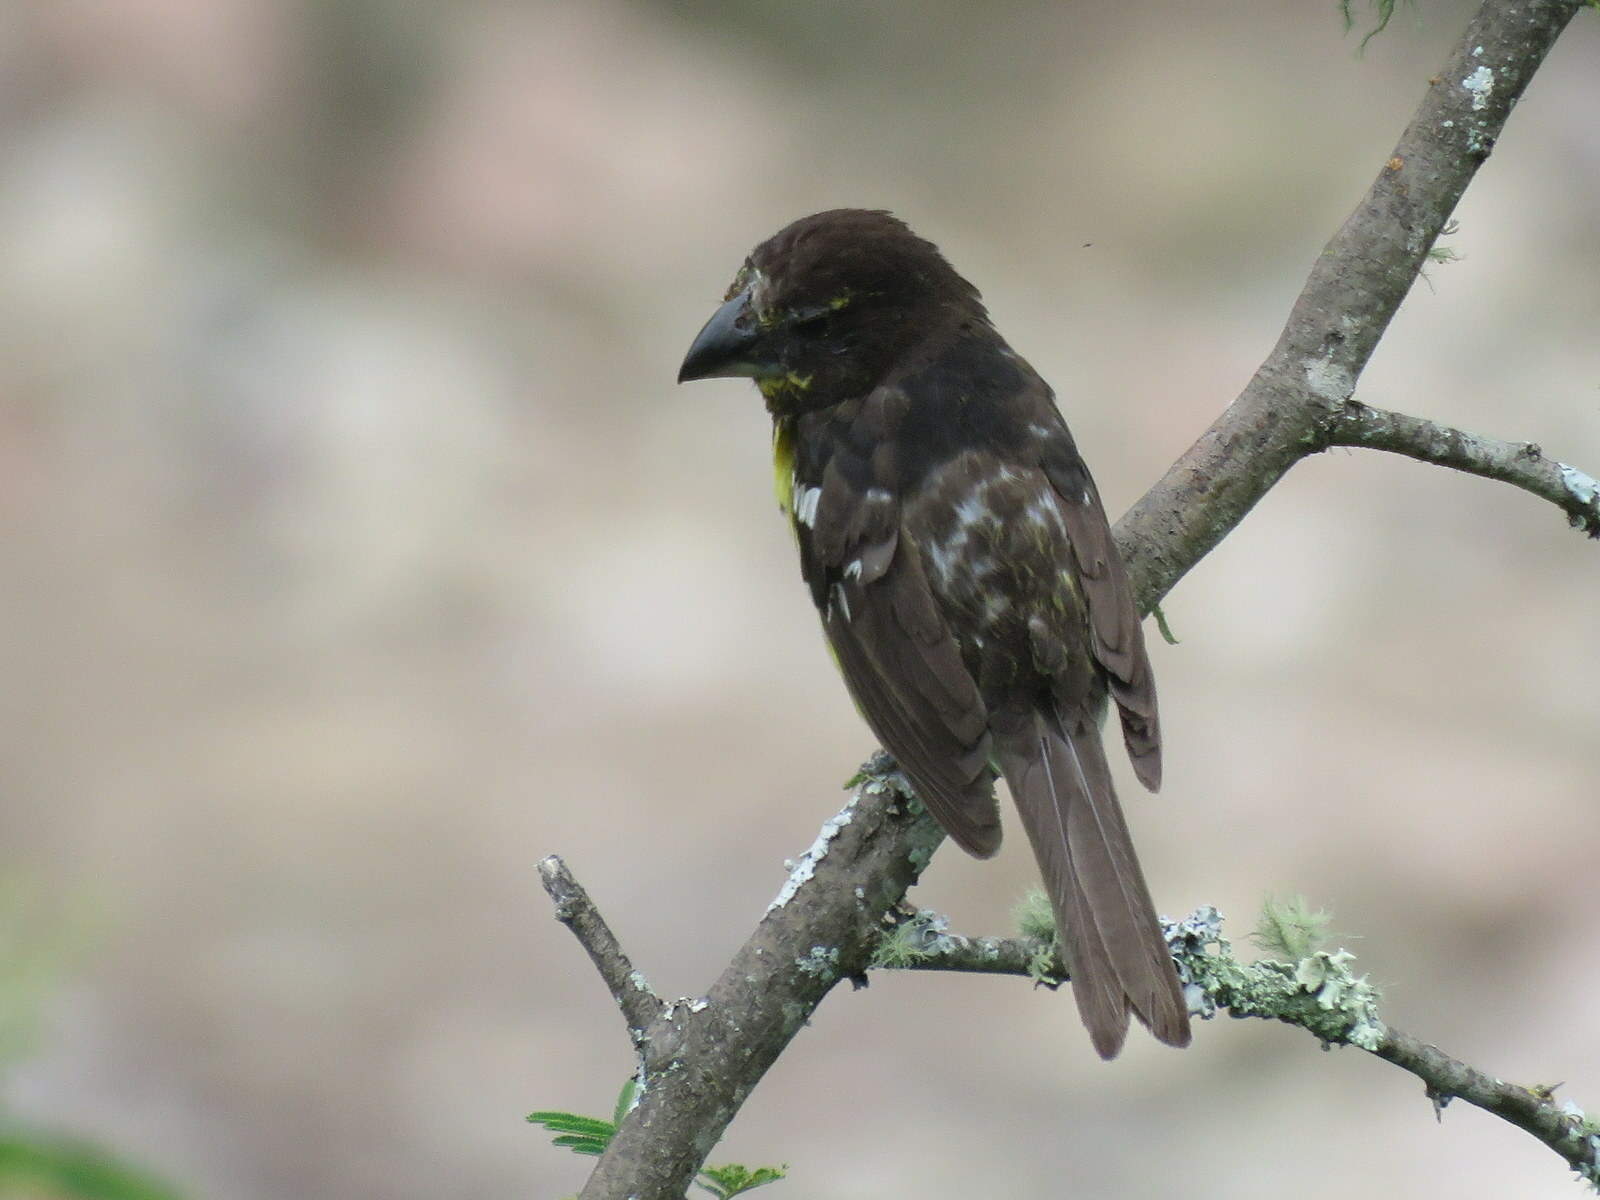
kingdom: Animalia
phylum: Chordata
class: Aves
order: Passeriformes
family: Cardinalidae
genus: Pheucticus
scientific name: Pheucticus aureoventris
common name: Black-backed grosbeak
